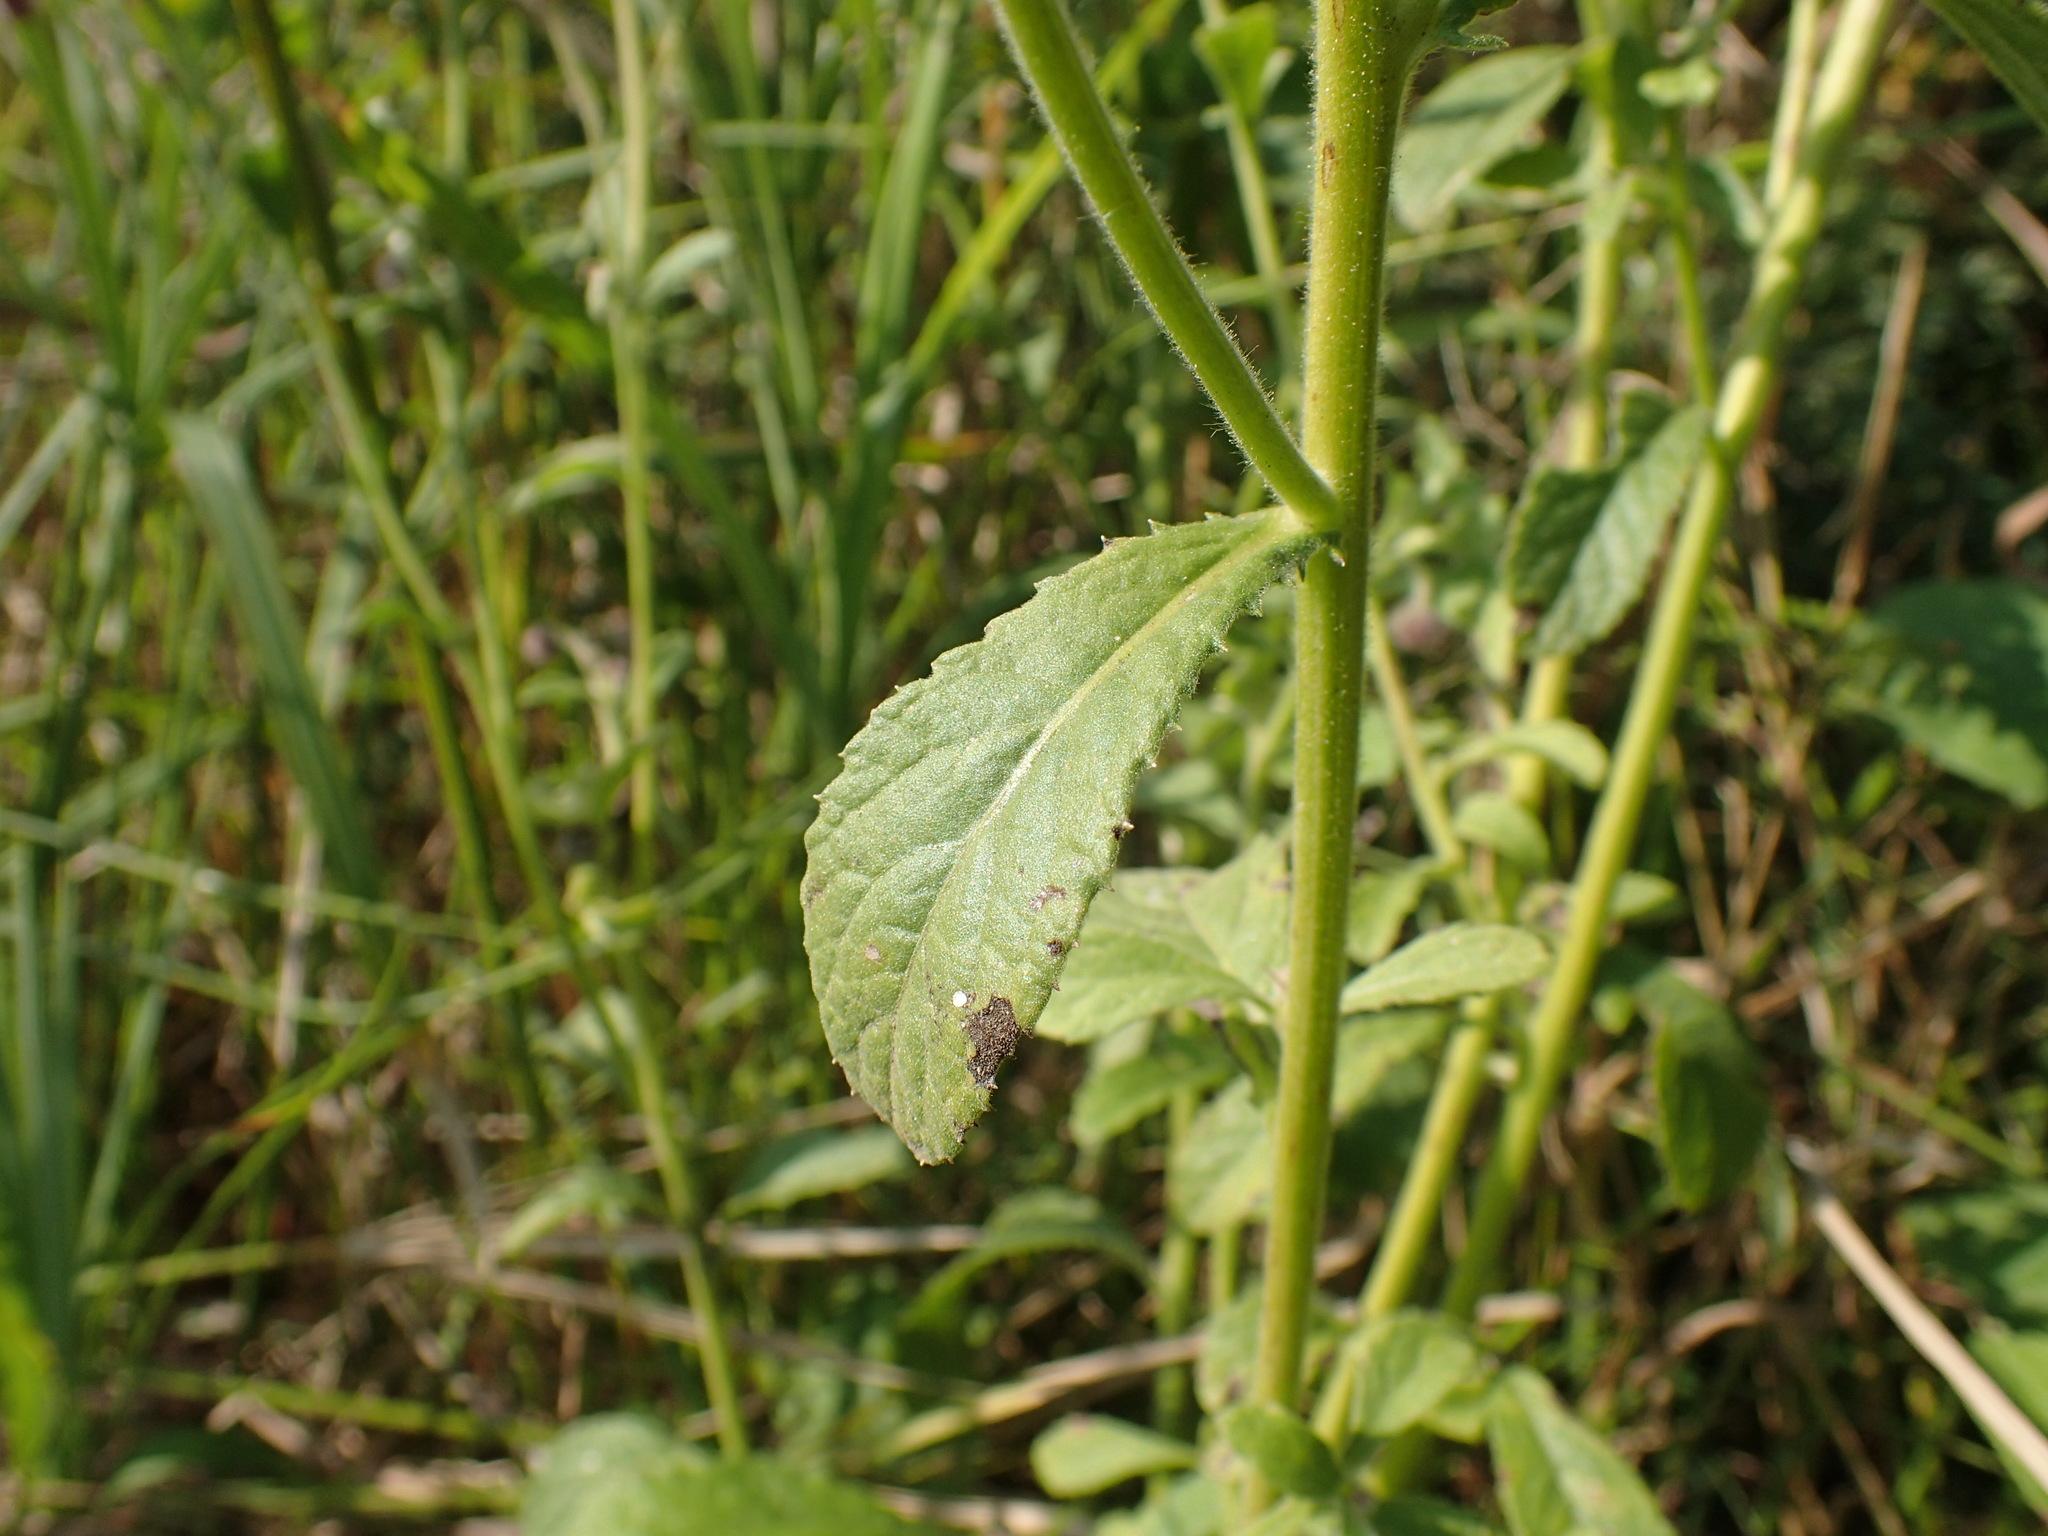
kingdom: Plantae
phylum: Tracheophyta
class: Magnoliopsida
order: Asterales
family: Asteraceae
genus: Blumea
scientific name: Blumea axillaris
